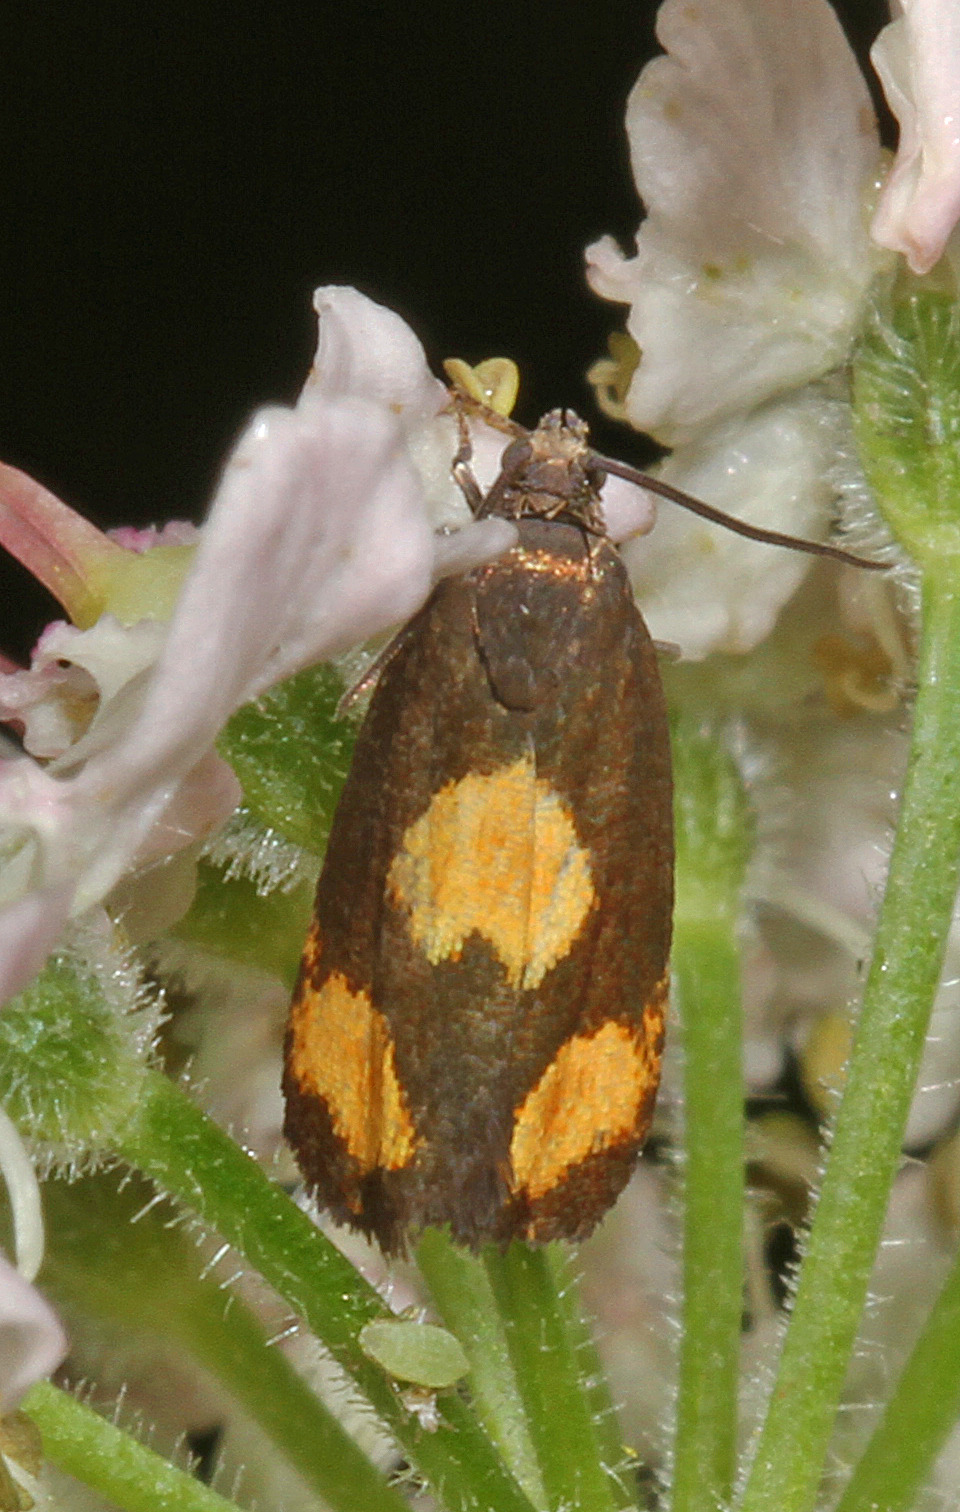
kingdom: Animalia
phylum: Arthropoda
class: Insecta
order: Lepidoptera
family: Tortricidae
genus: Pammene
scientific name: Pammene aurana
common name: Orange-spot piercer
